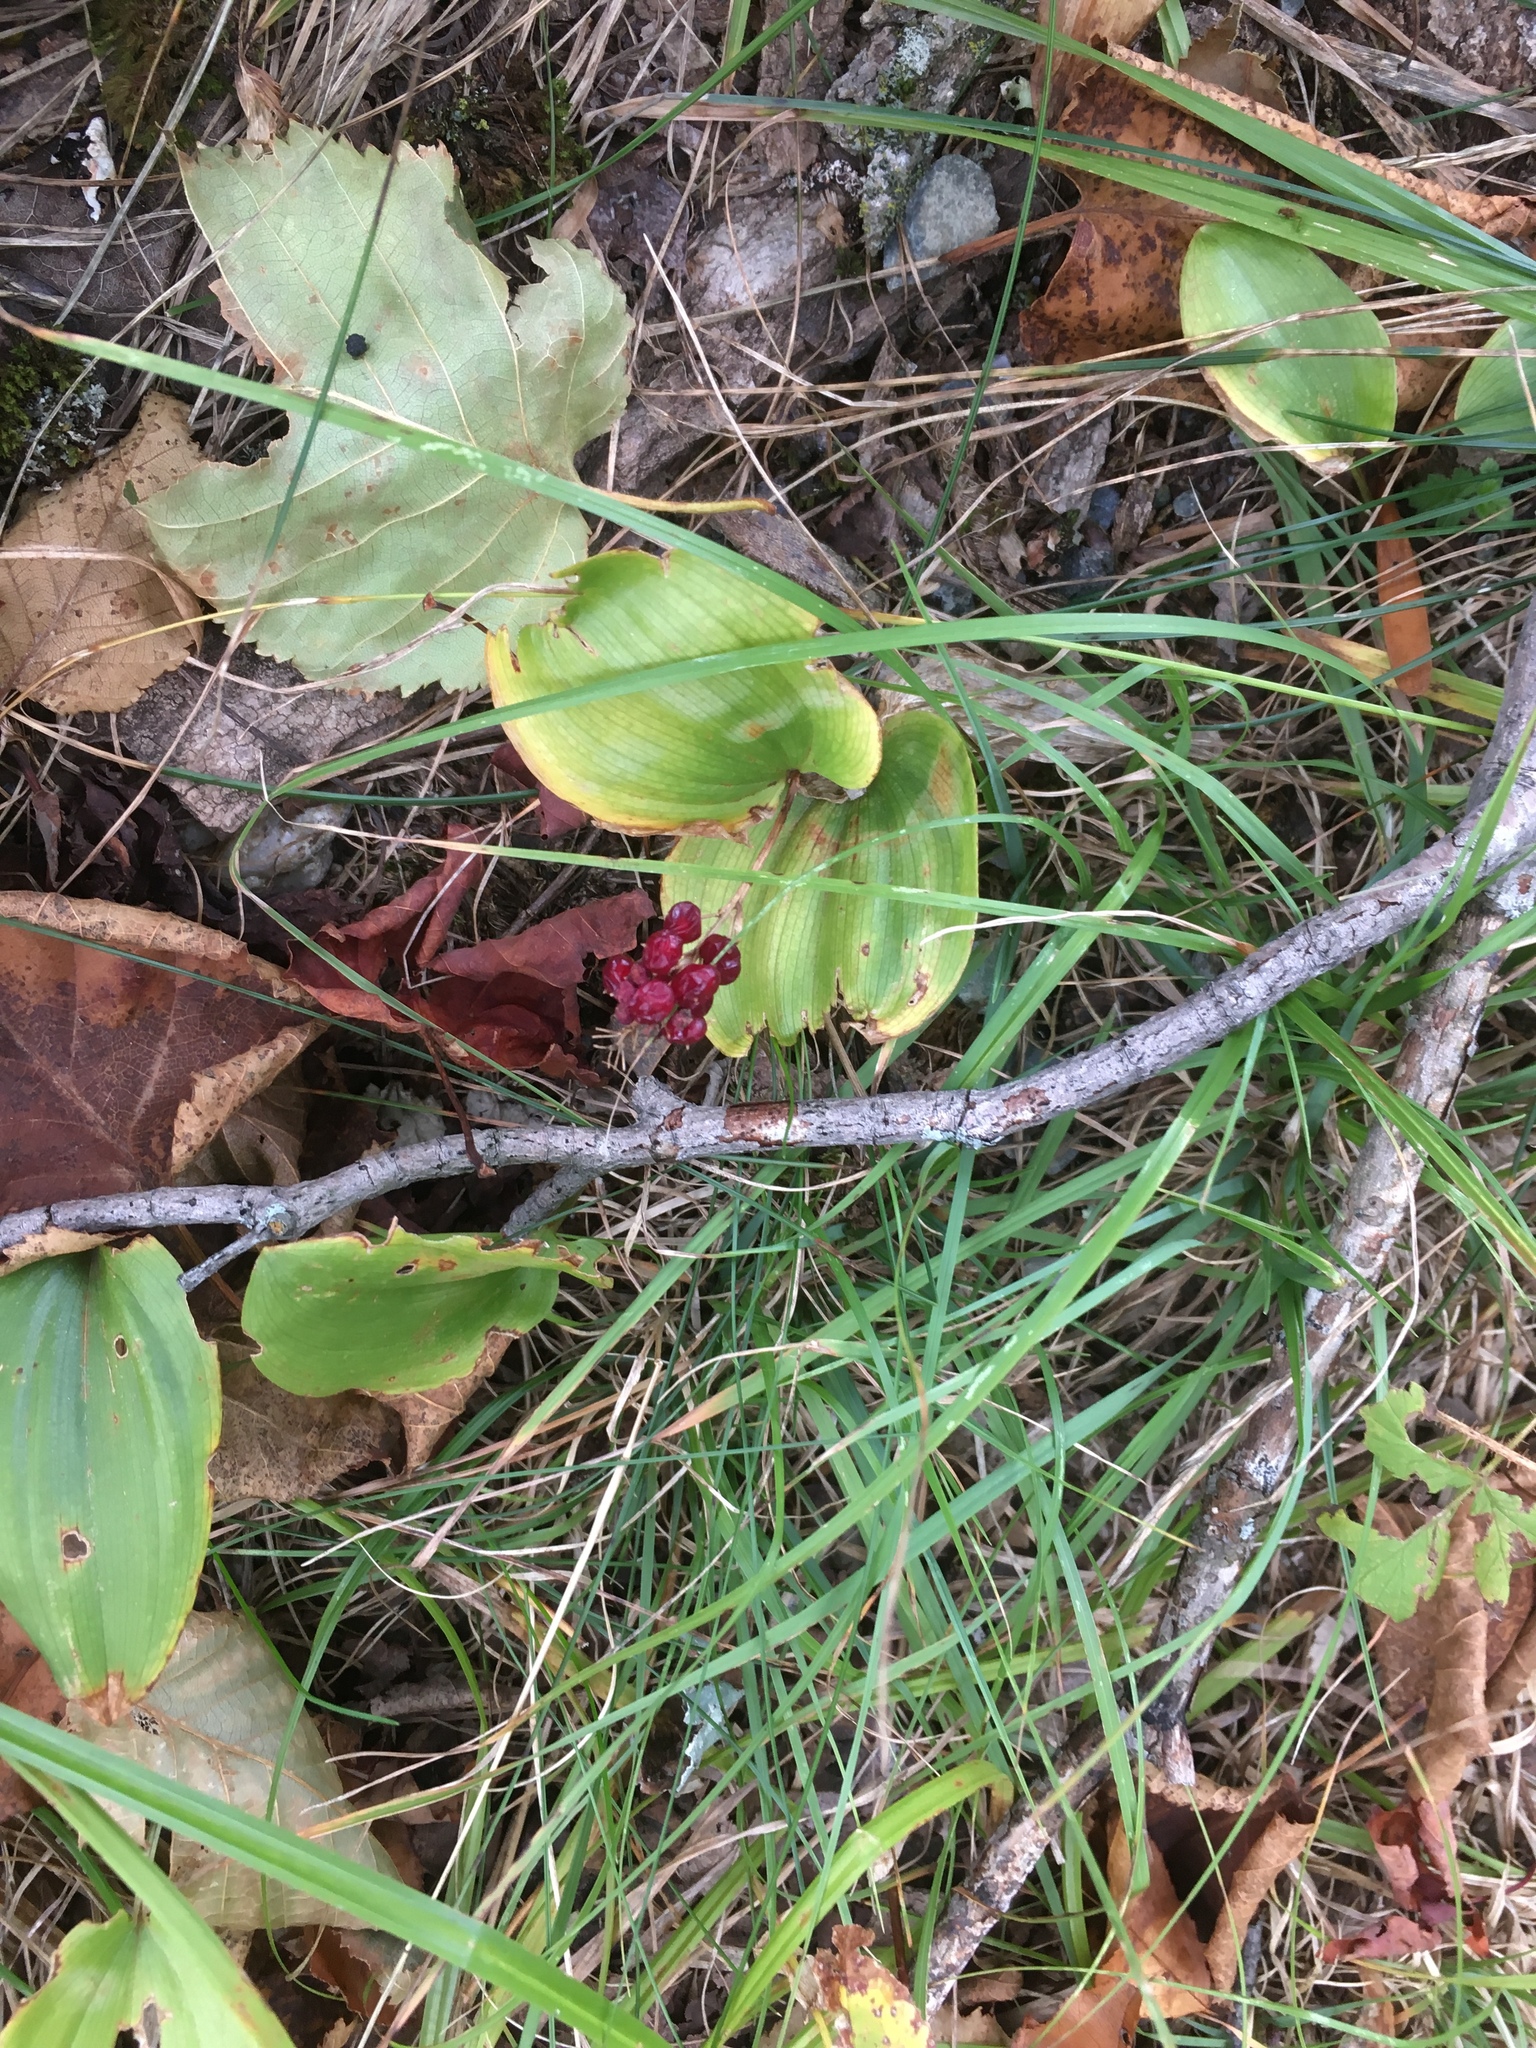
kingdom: Plantae
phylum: Tracheophyta
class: Liliopsida
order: Asparagales
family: Asparagaceae
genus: Maianthemum
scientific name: Maianthemum canadense
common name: False lily-of-the-valley
